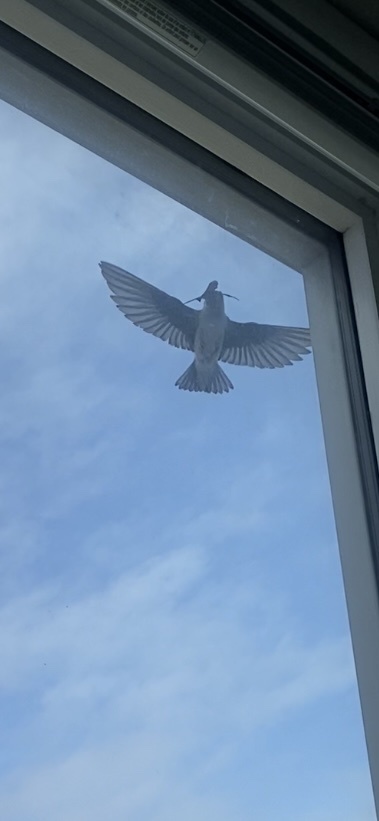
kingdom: Animalia
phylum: Chordata
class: Aves
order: Passeriformes
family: Hirundinidae
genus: Tachycineta
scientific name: Tachycineta thalassina
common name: Violet-green swallow
